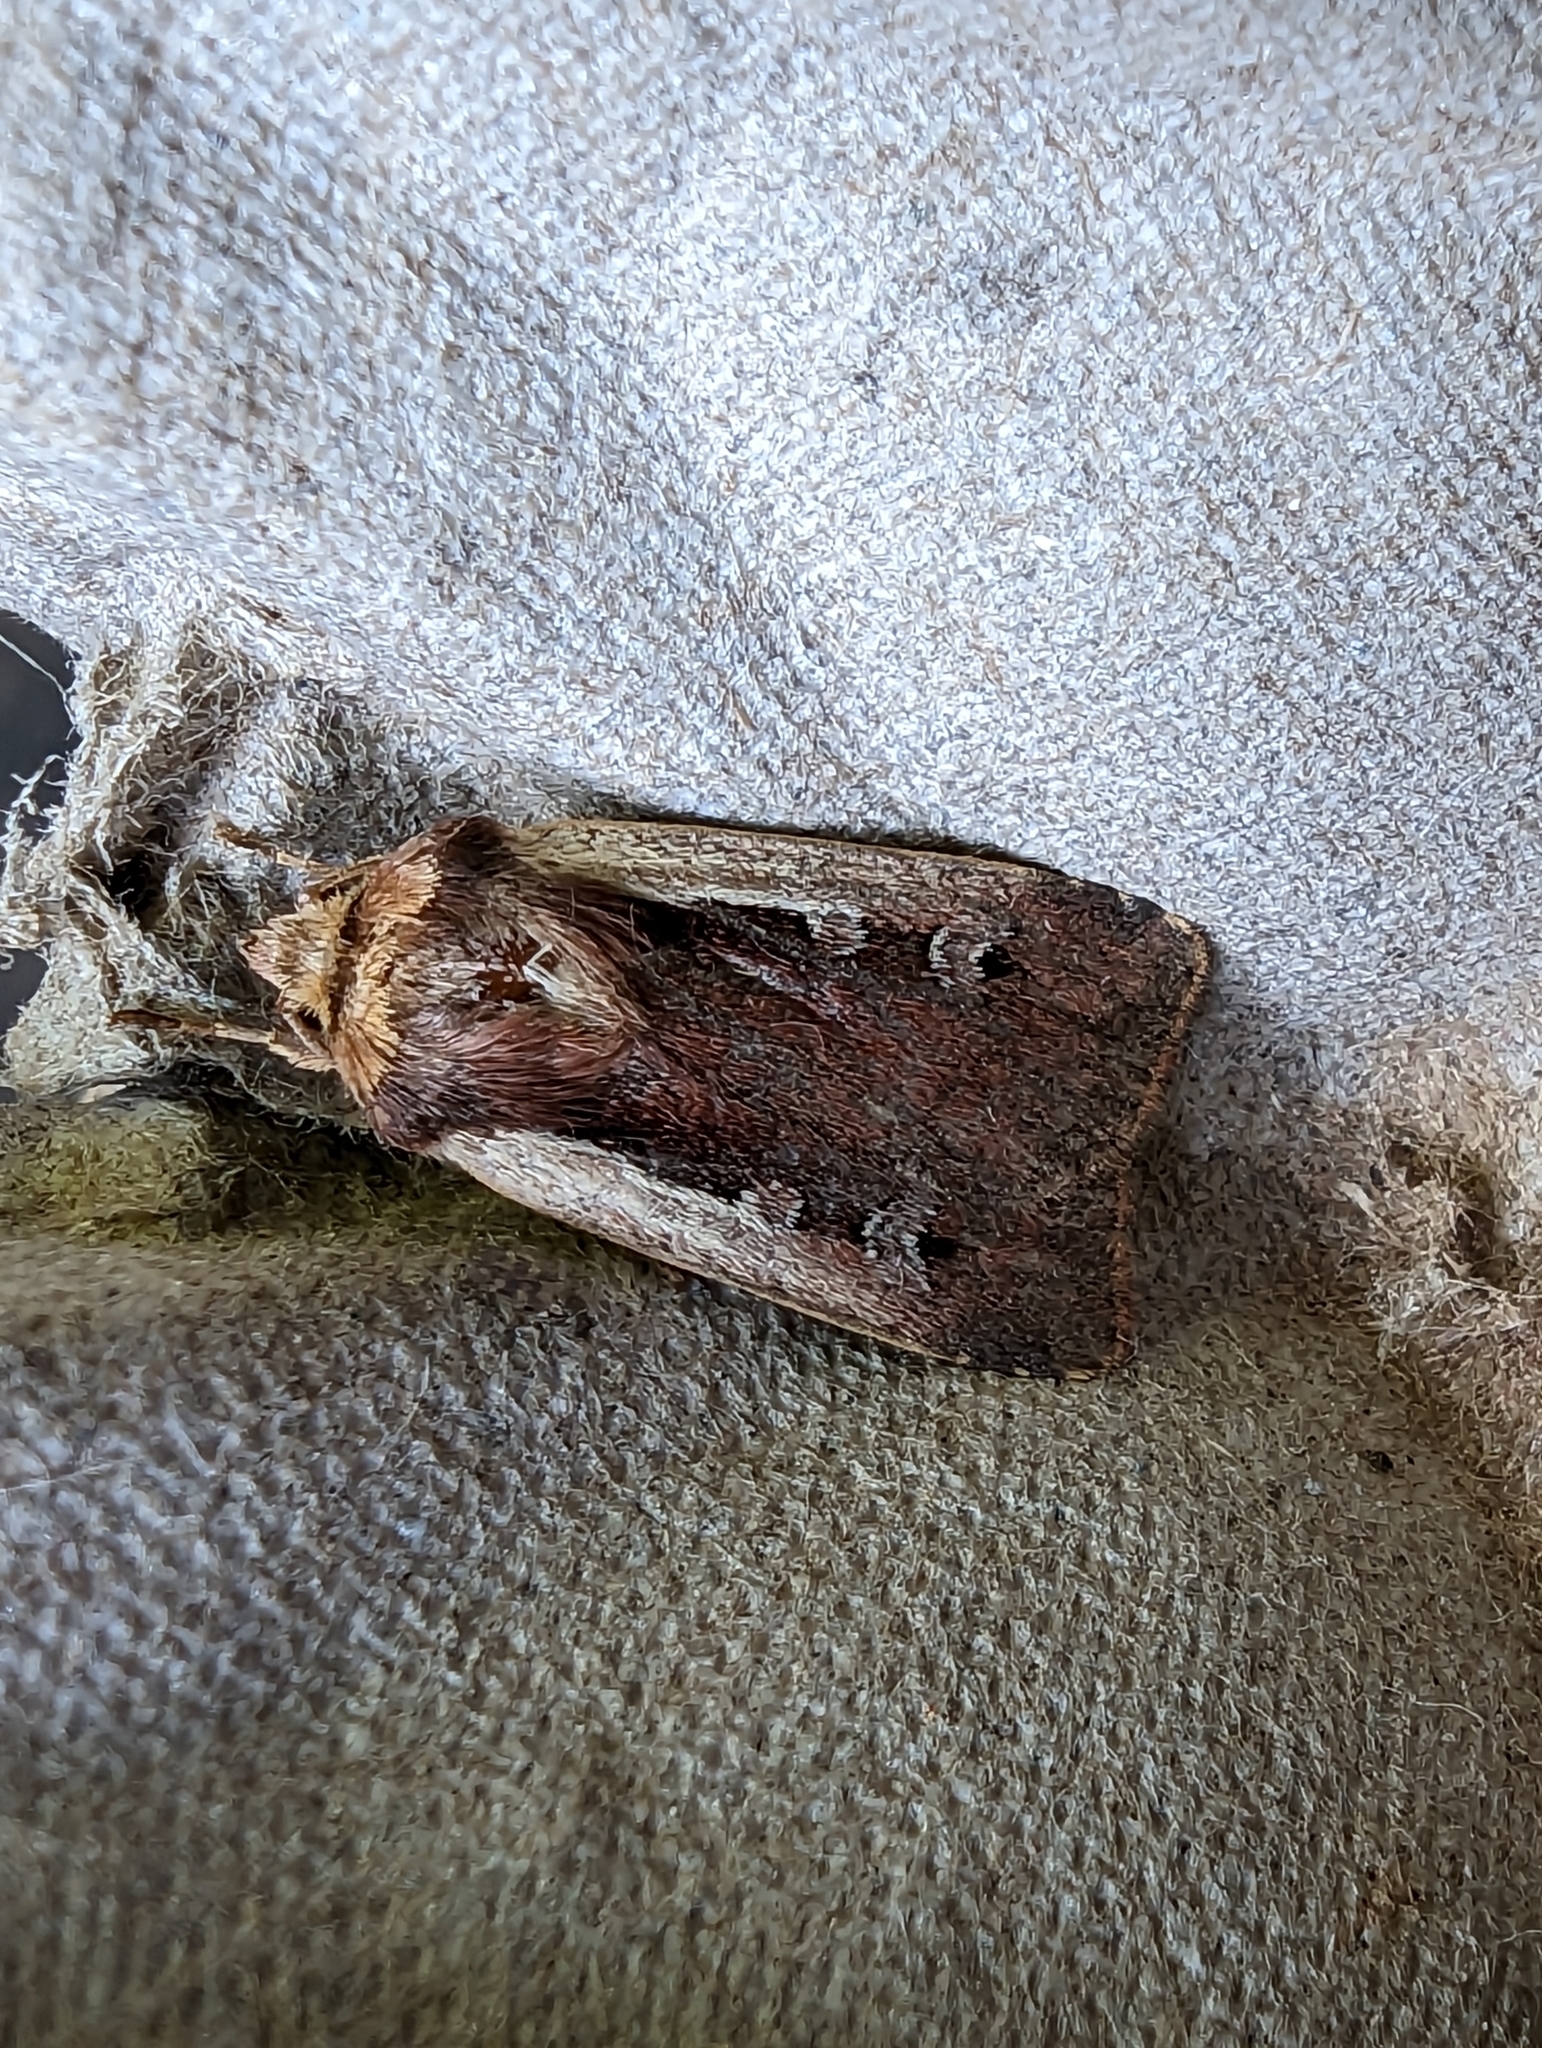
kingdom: Animalia
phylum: Arthropoda
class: Insecta
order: Lepidoptera
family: Noctuidae
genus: Ochropleura
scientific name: Ochropleura plecta
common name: Flame shoulder
